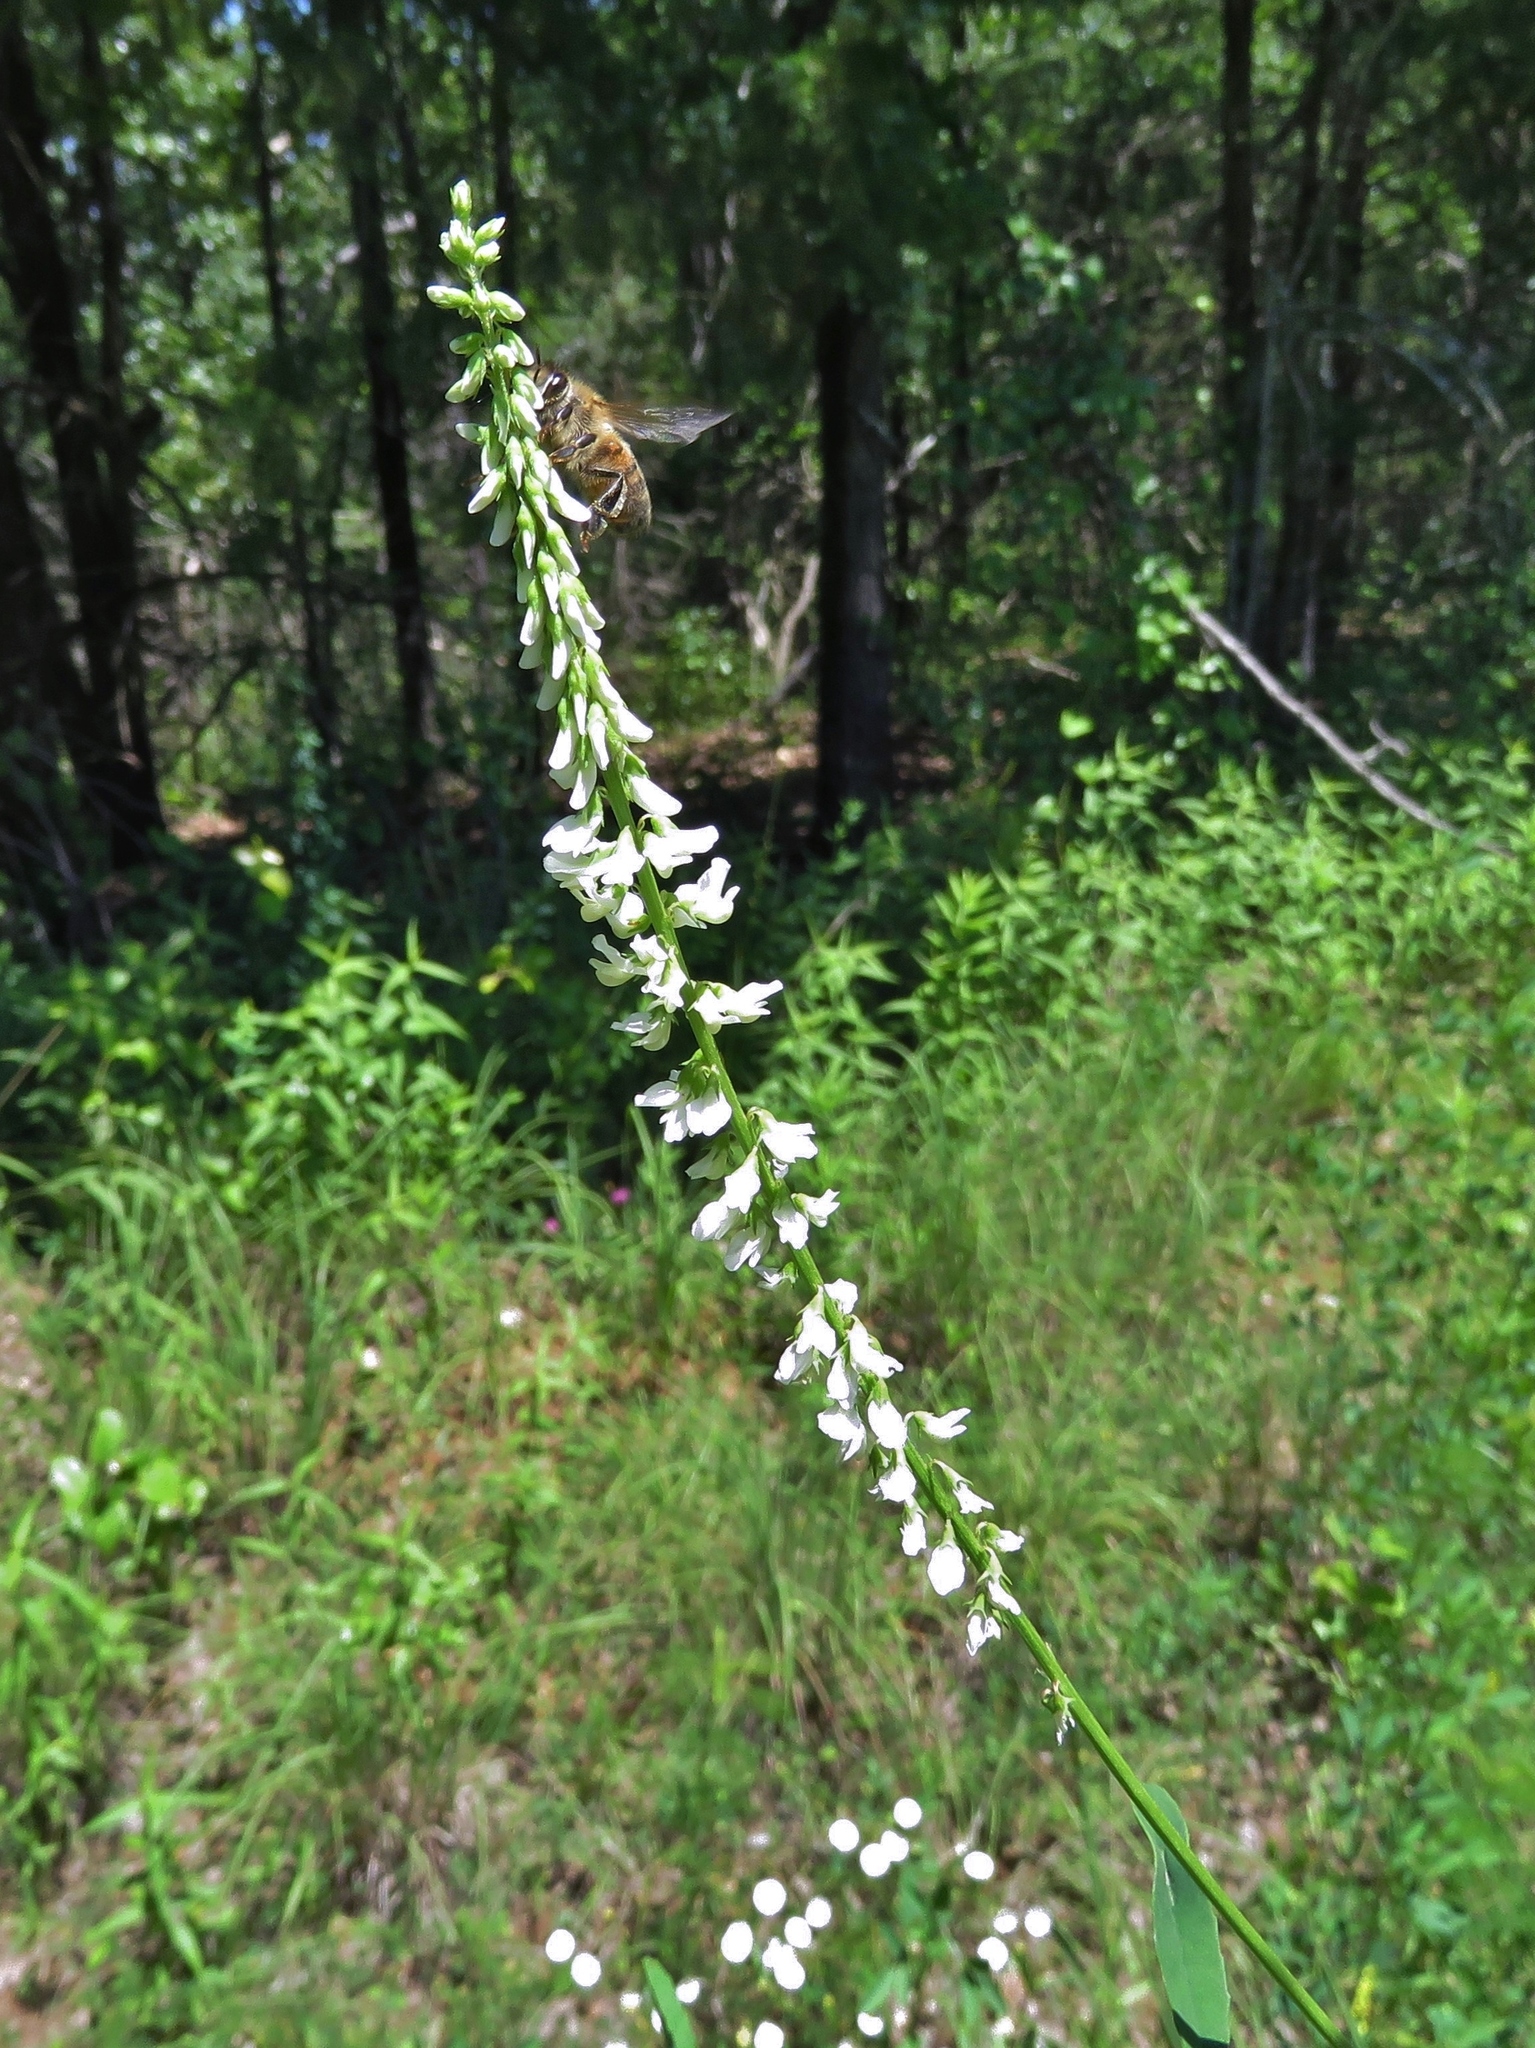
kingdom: Plantae
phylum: Tracheophyta
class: Magnoliopsida
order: Fabales
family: Fabaceae
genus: Melilotus
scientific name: Melilotus albus
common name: White melilot
